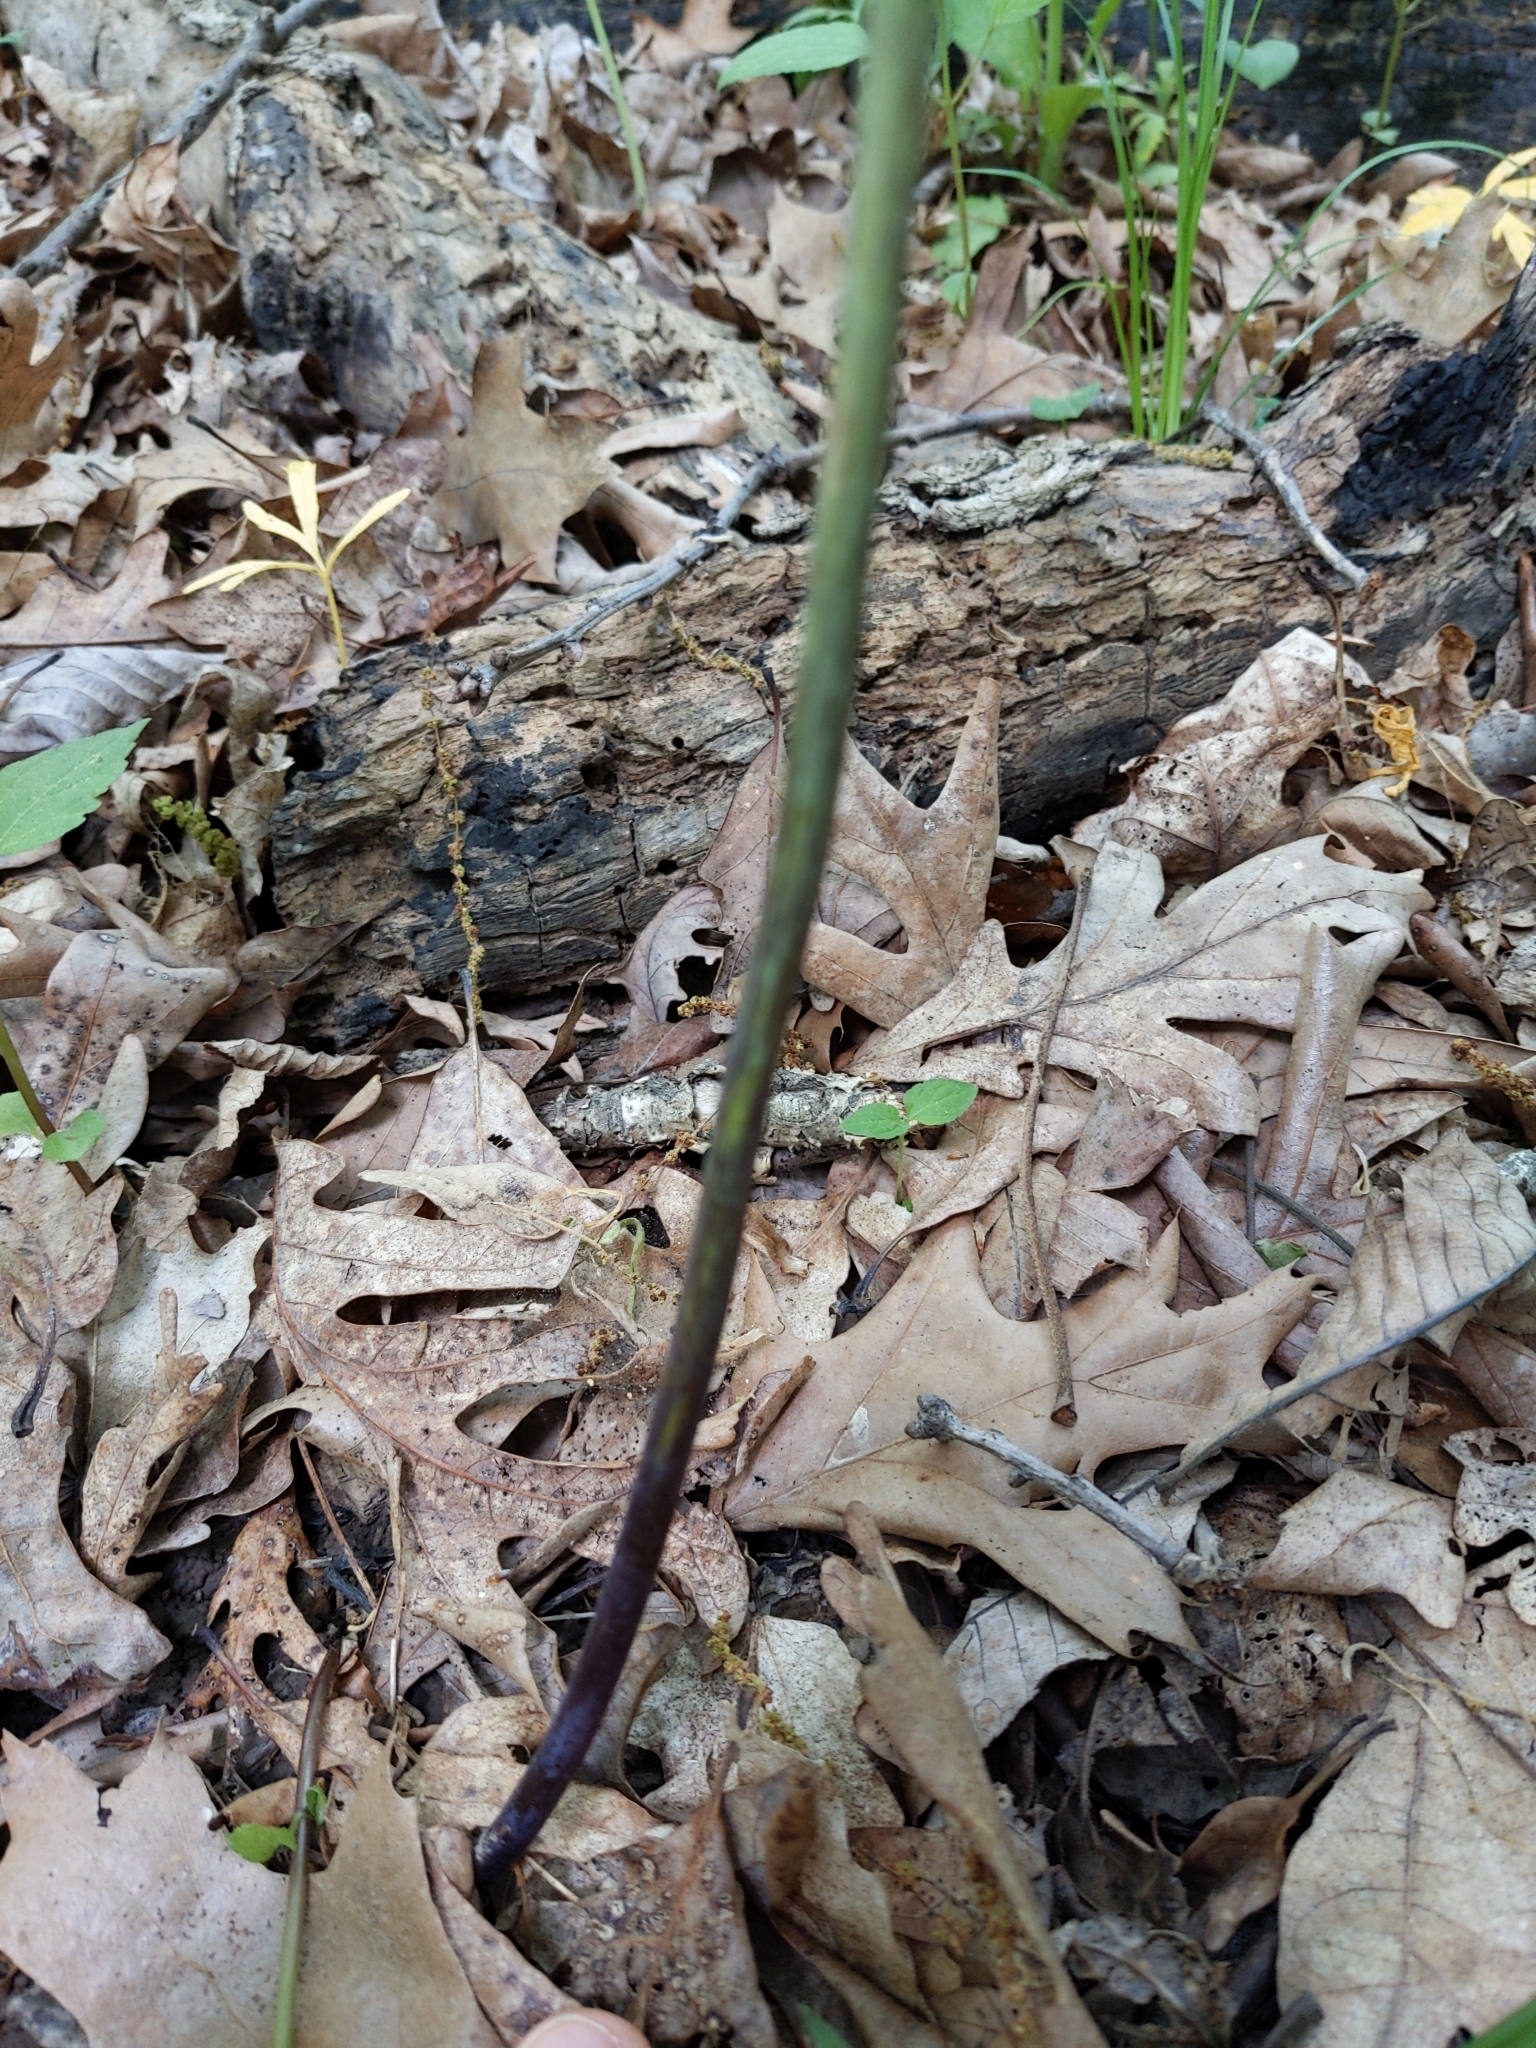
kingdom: Plantae
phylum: Tracheophyta
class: Liliopsida
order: Liliales
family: Melanthiaceae
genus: Trillium
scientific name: Trillium recurvatum
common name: Bloody butcher
